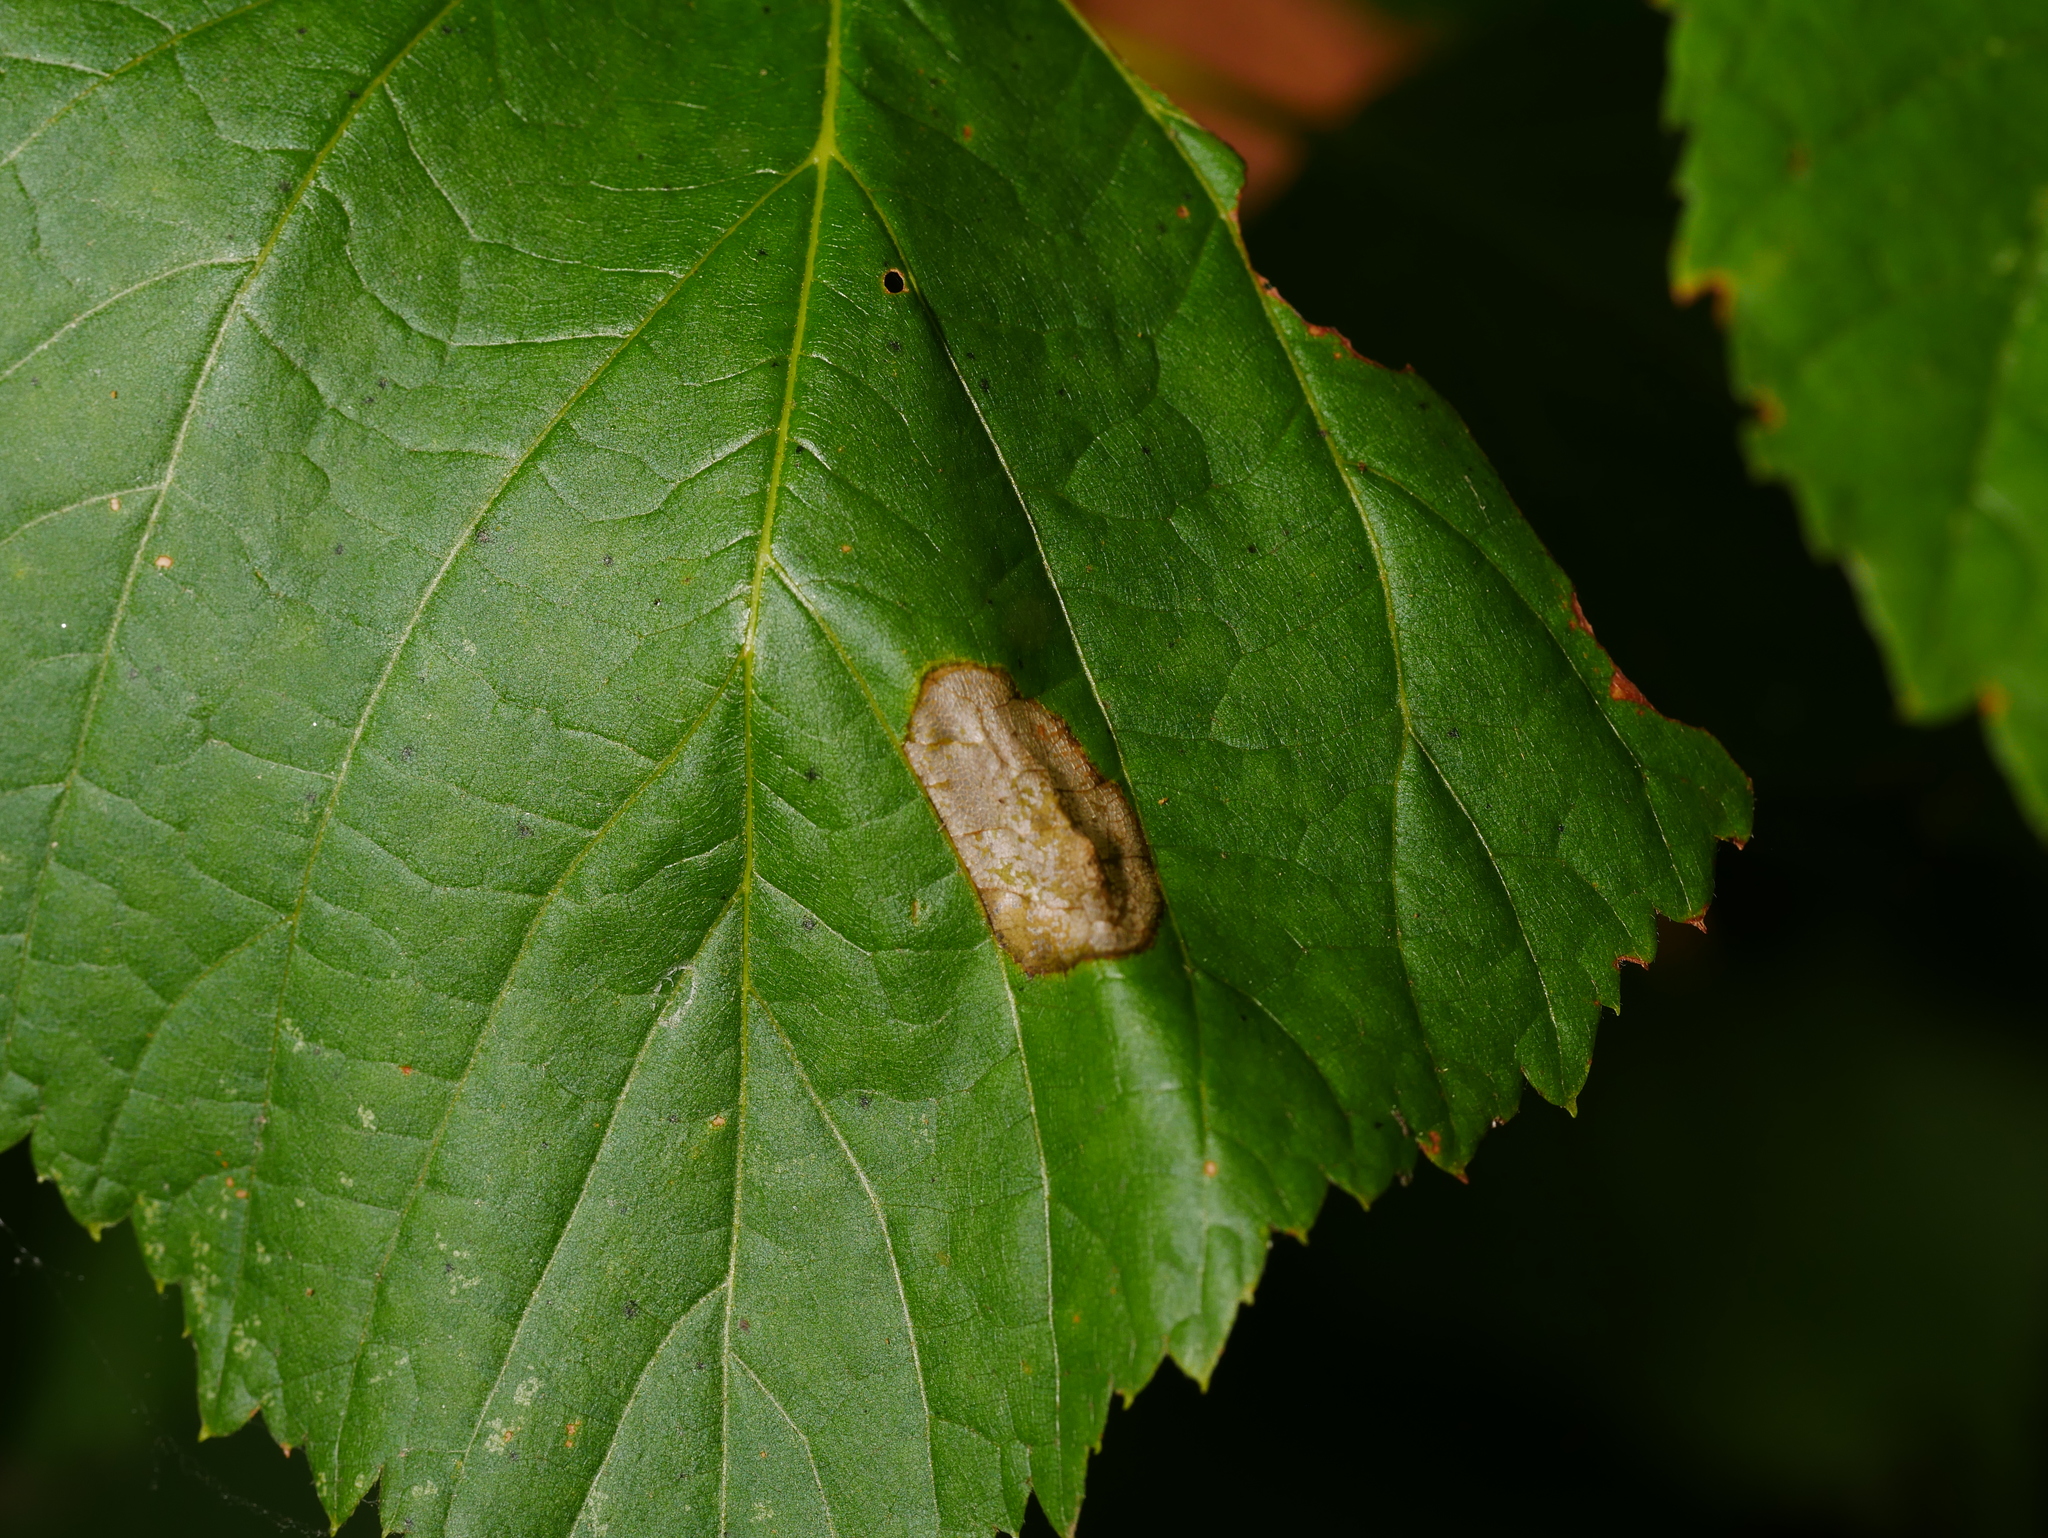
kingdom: Animalia
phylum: Arthropoda
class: Insecta
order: Lepidoptera
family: Gracillariidae
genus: Phyllonorycter
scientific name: Phyllonorycter issikii
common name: Linden midget
